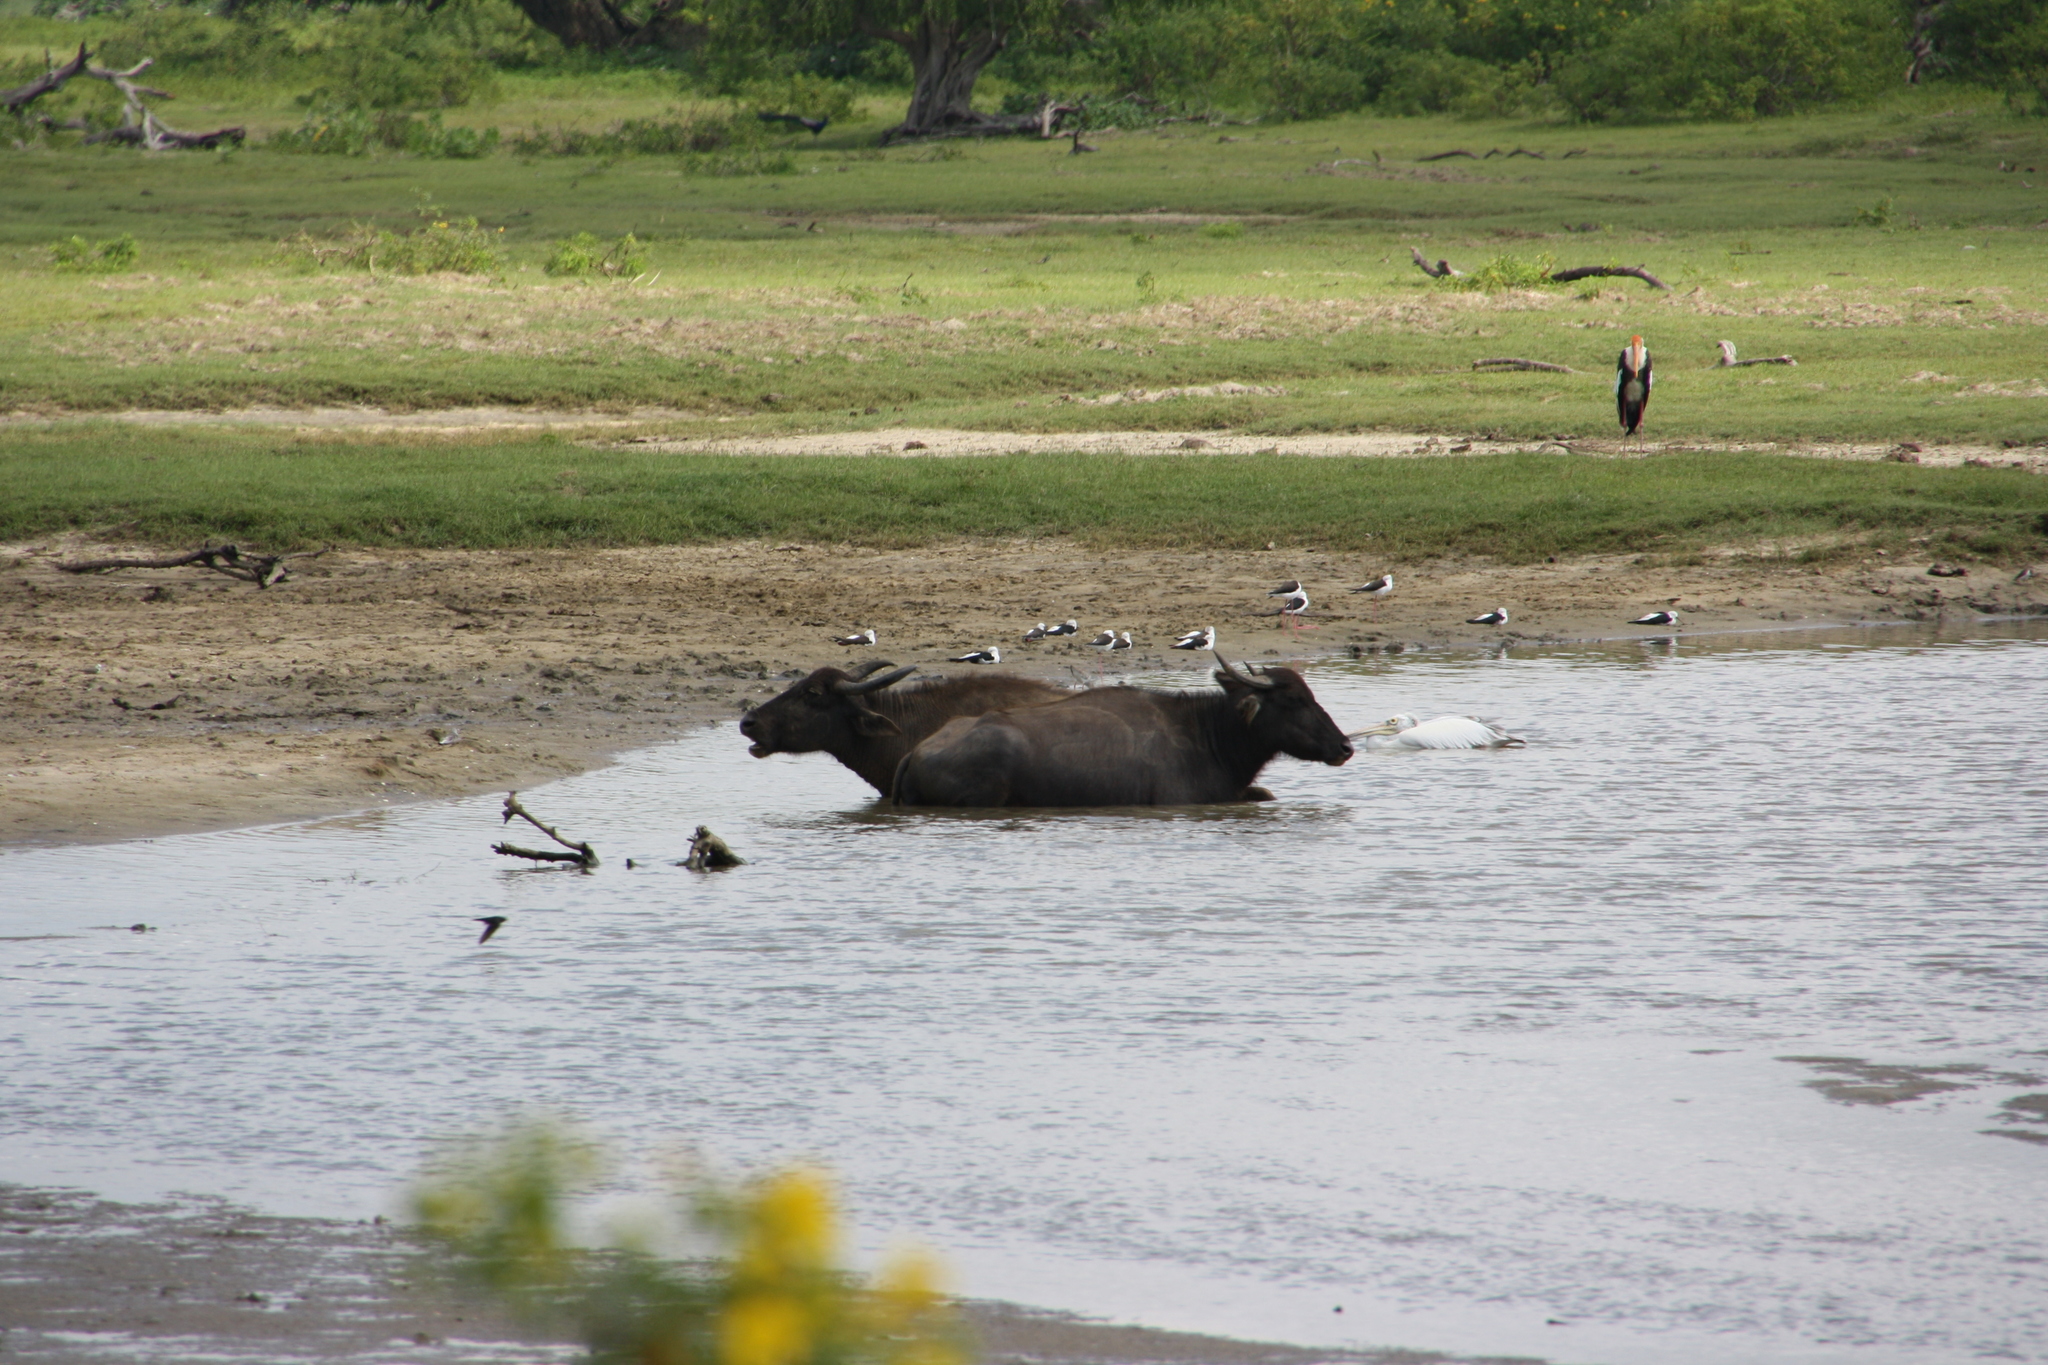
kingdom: Animalia
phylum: Chordata
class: Aves
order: Pelecaniformes
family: Pelecanidae
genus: Pelecanus
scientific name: Pelecanus philippensis
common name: Spot-billed pelican
